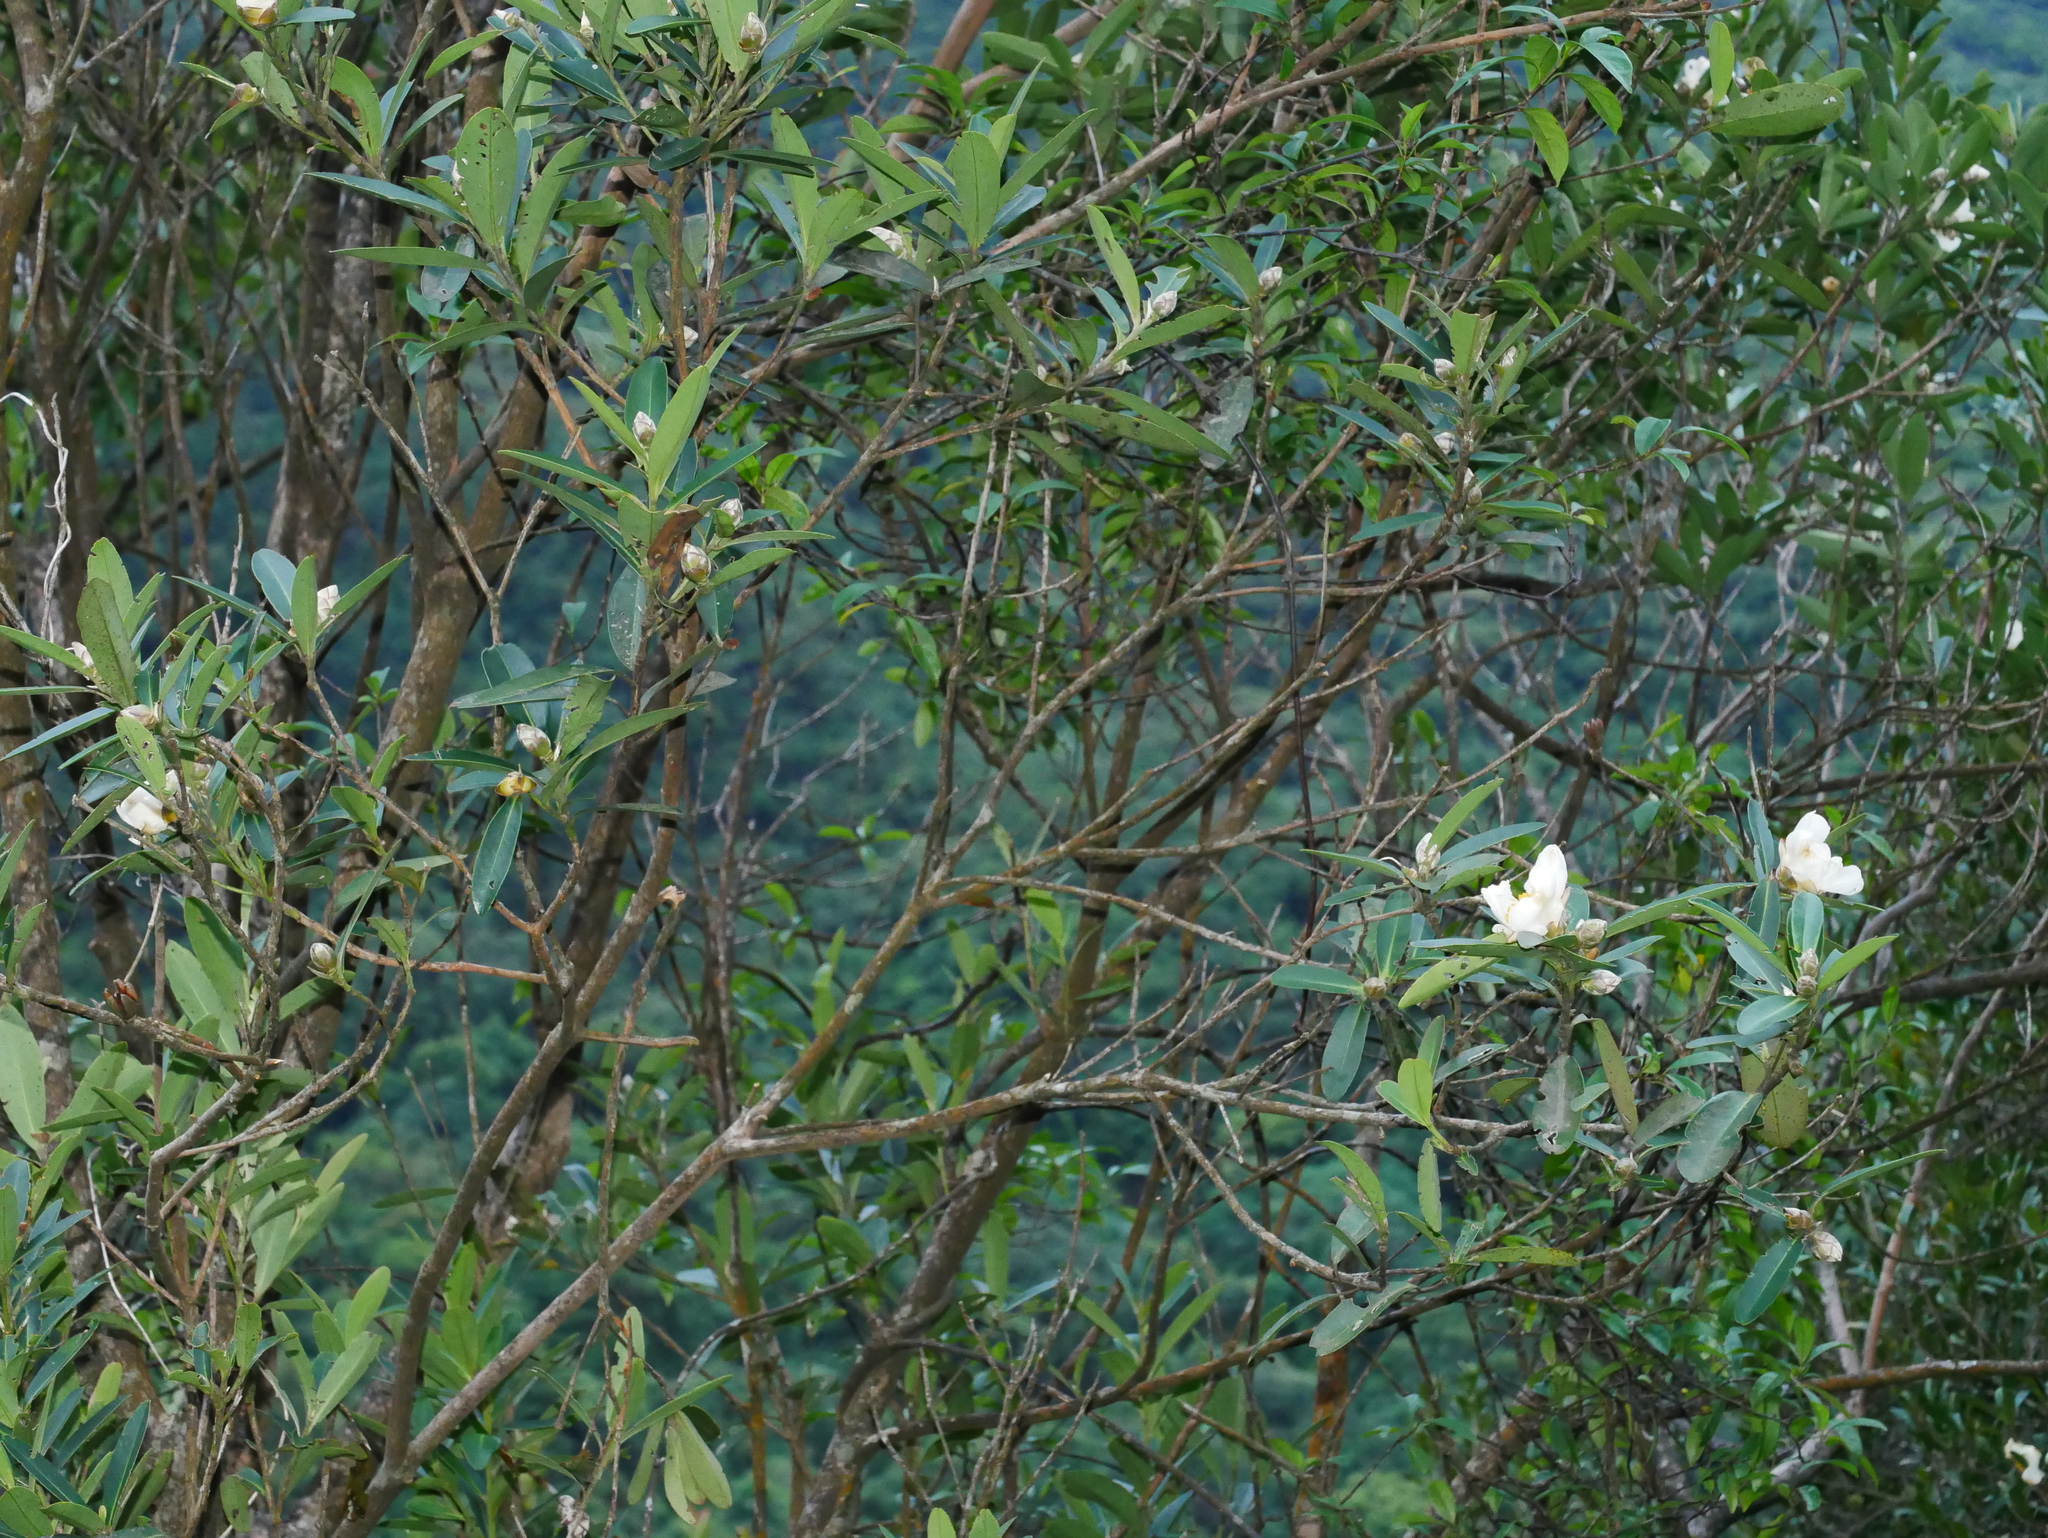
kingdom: Plantae
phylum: Tracheophyta
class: Magnoliopsida
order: Ericales
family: Theaceae
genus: Polyspora
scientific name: Polyspora axillaris
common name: Fried egg tree
